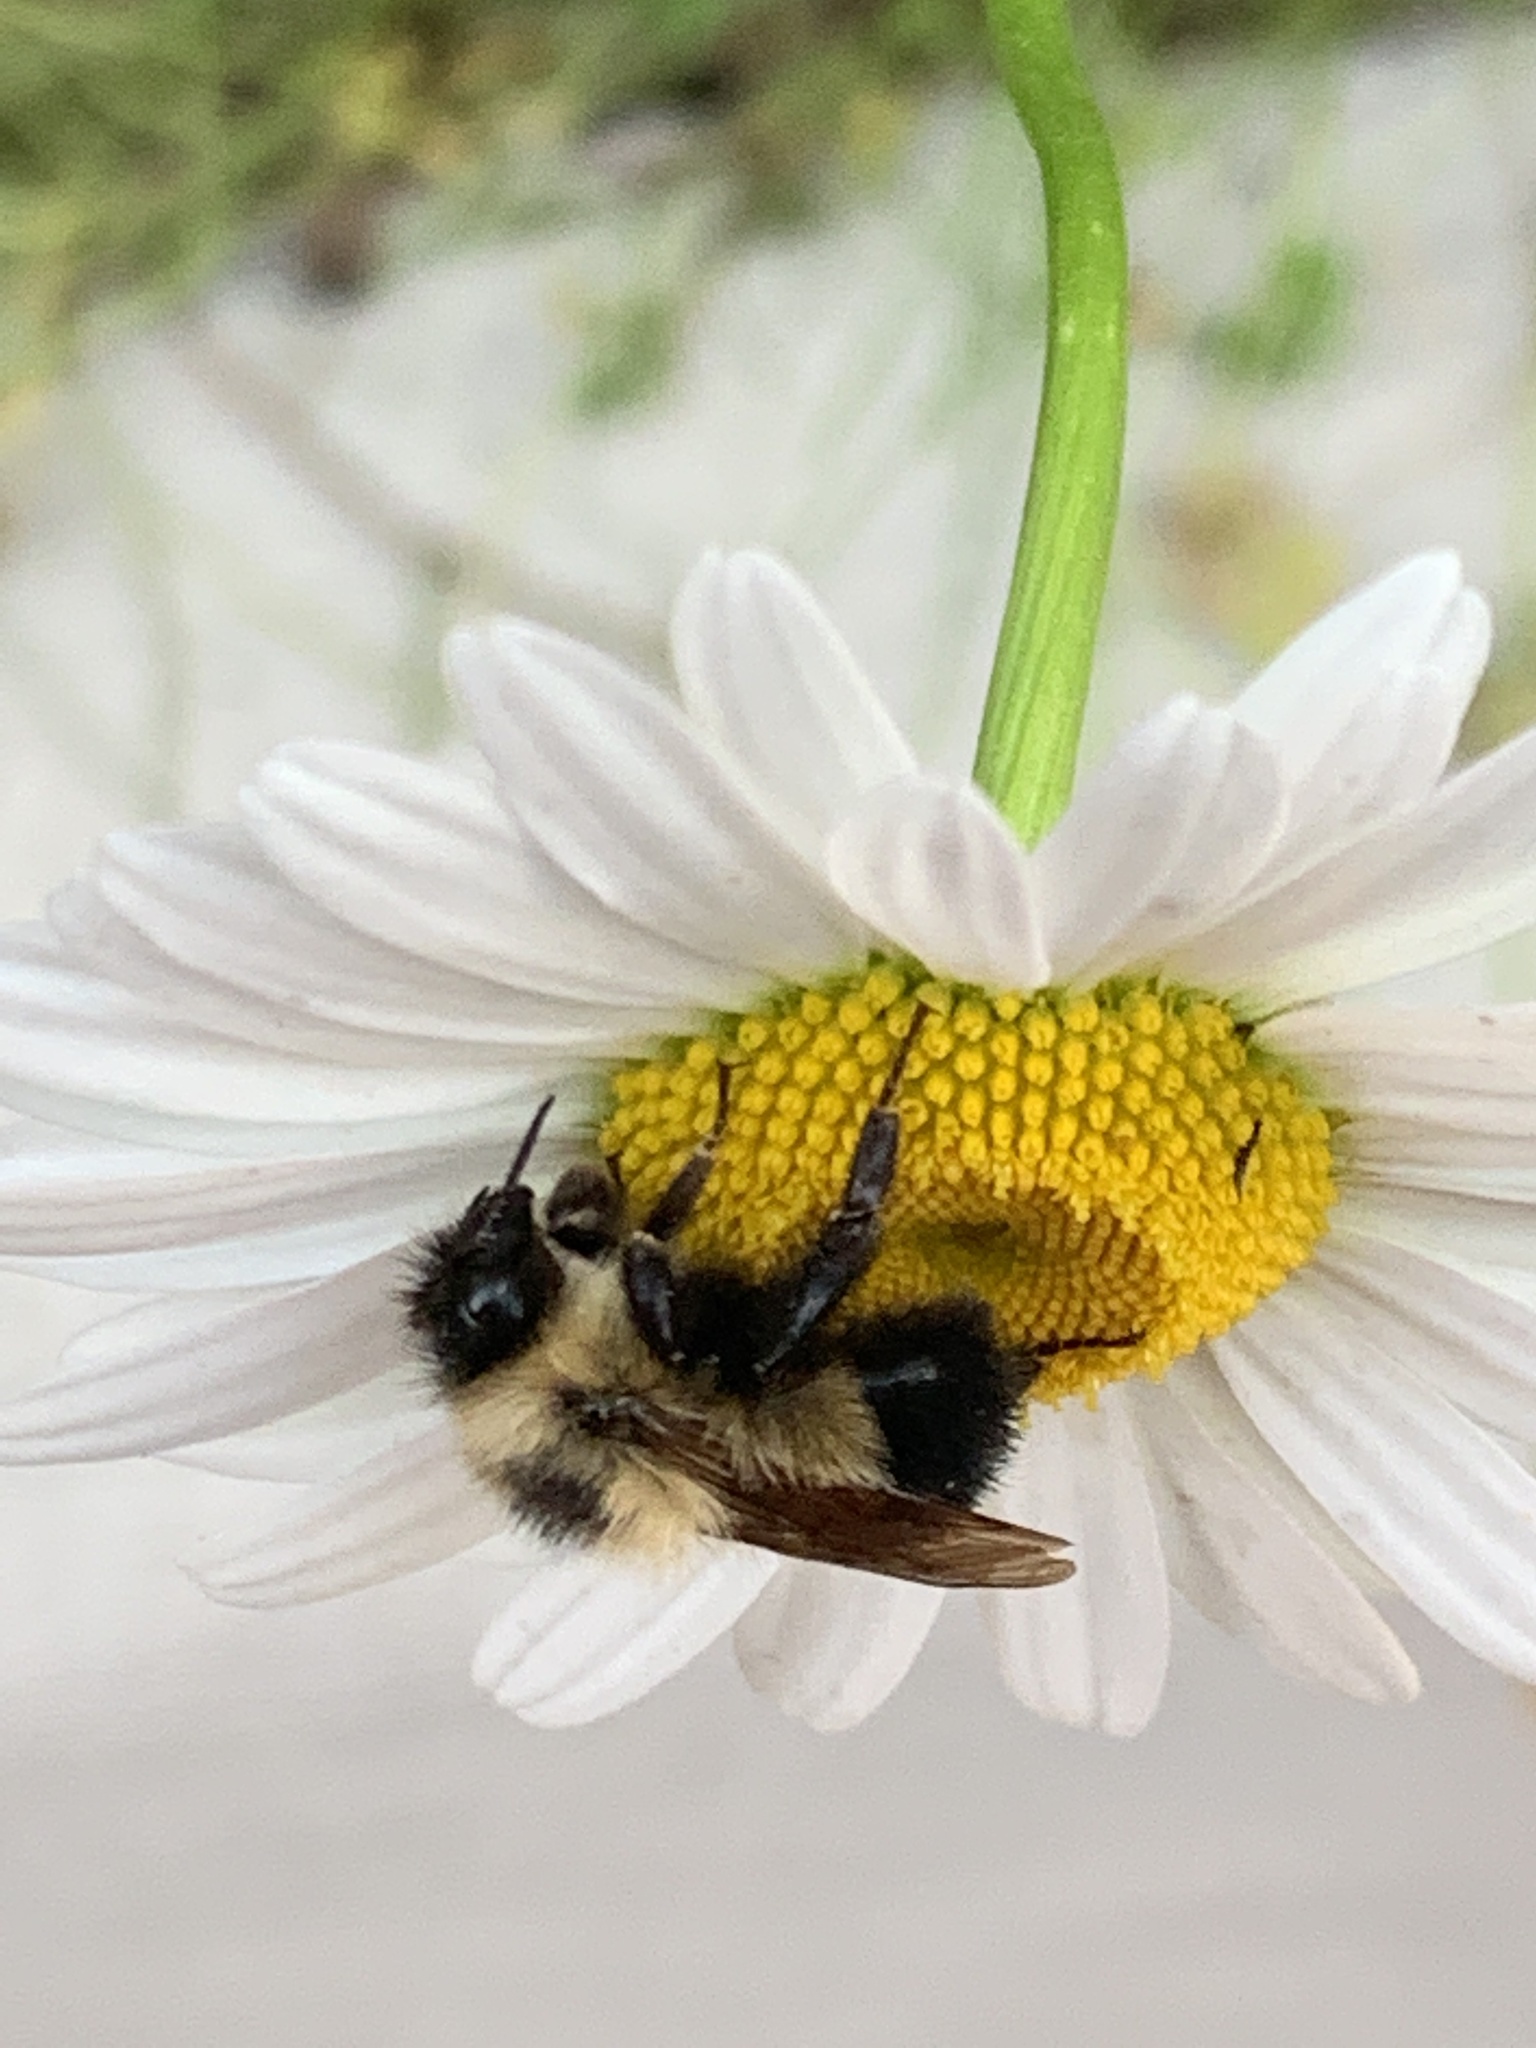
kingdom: Animalia
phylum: Arthropoda
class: Insecta
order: Hymenoptera
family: Apidae
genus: Bombus
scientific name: Bombus vagans
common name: Half-black bumble bee
